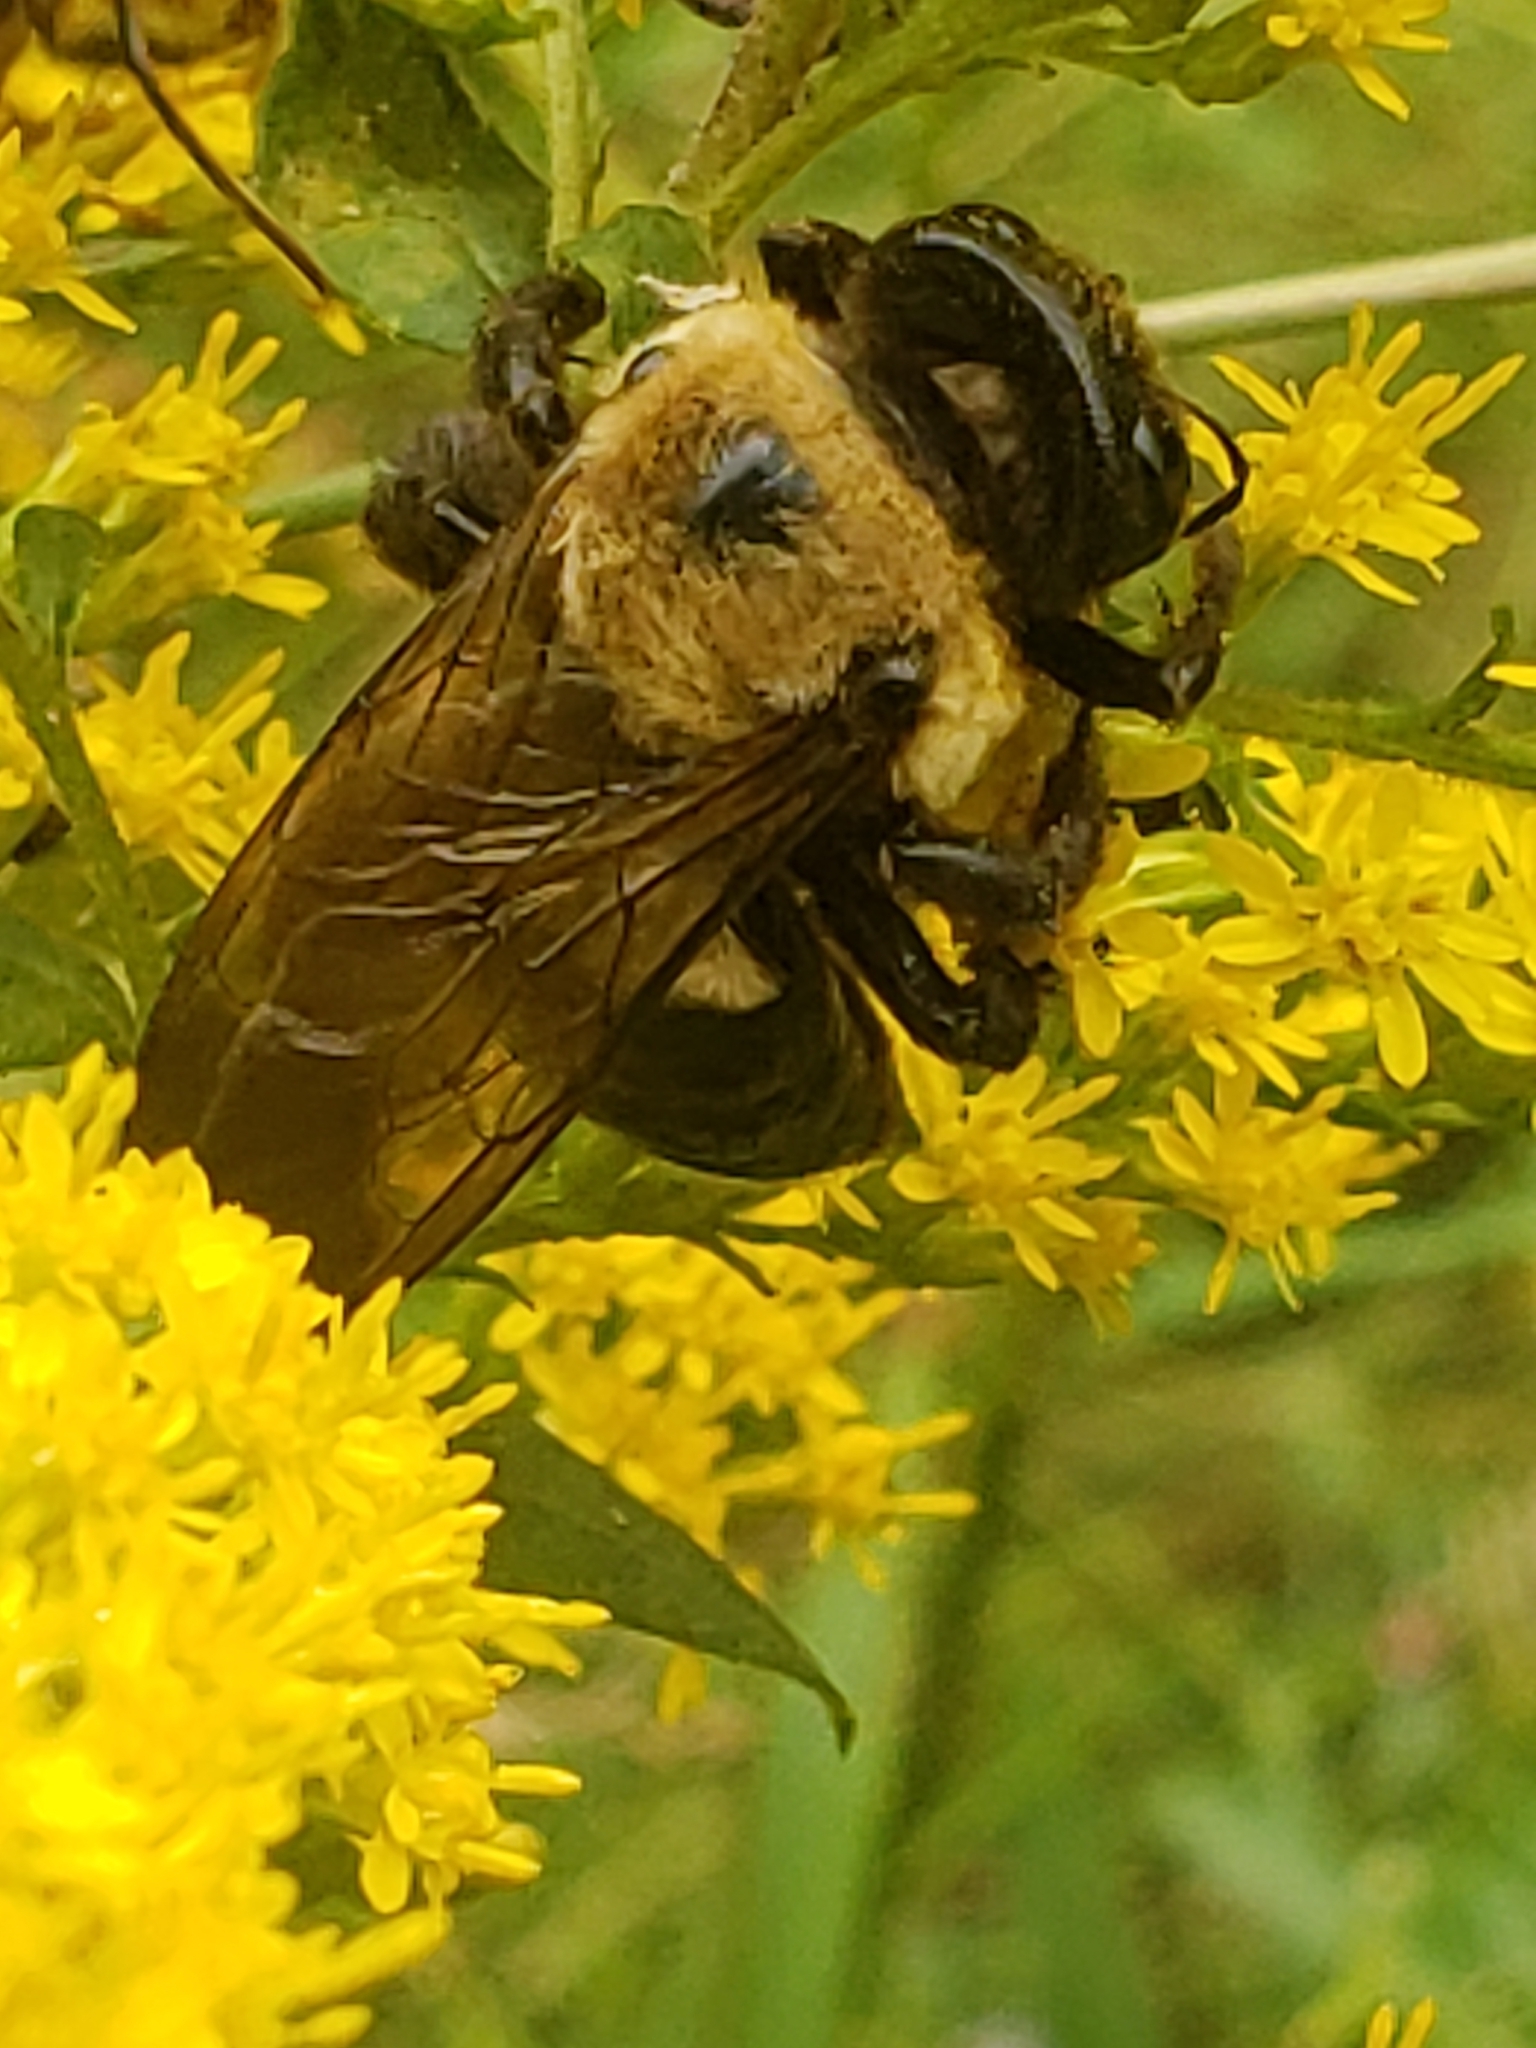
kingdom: Animalia
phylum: Arthropoda
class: Insecta
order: Hymenoptera
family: Apidae
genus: Xylocopa
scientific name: Xylocopa virginica
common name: Carpenter bee
